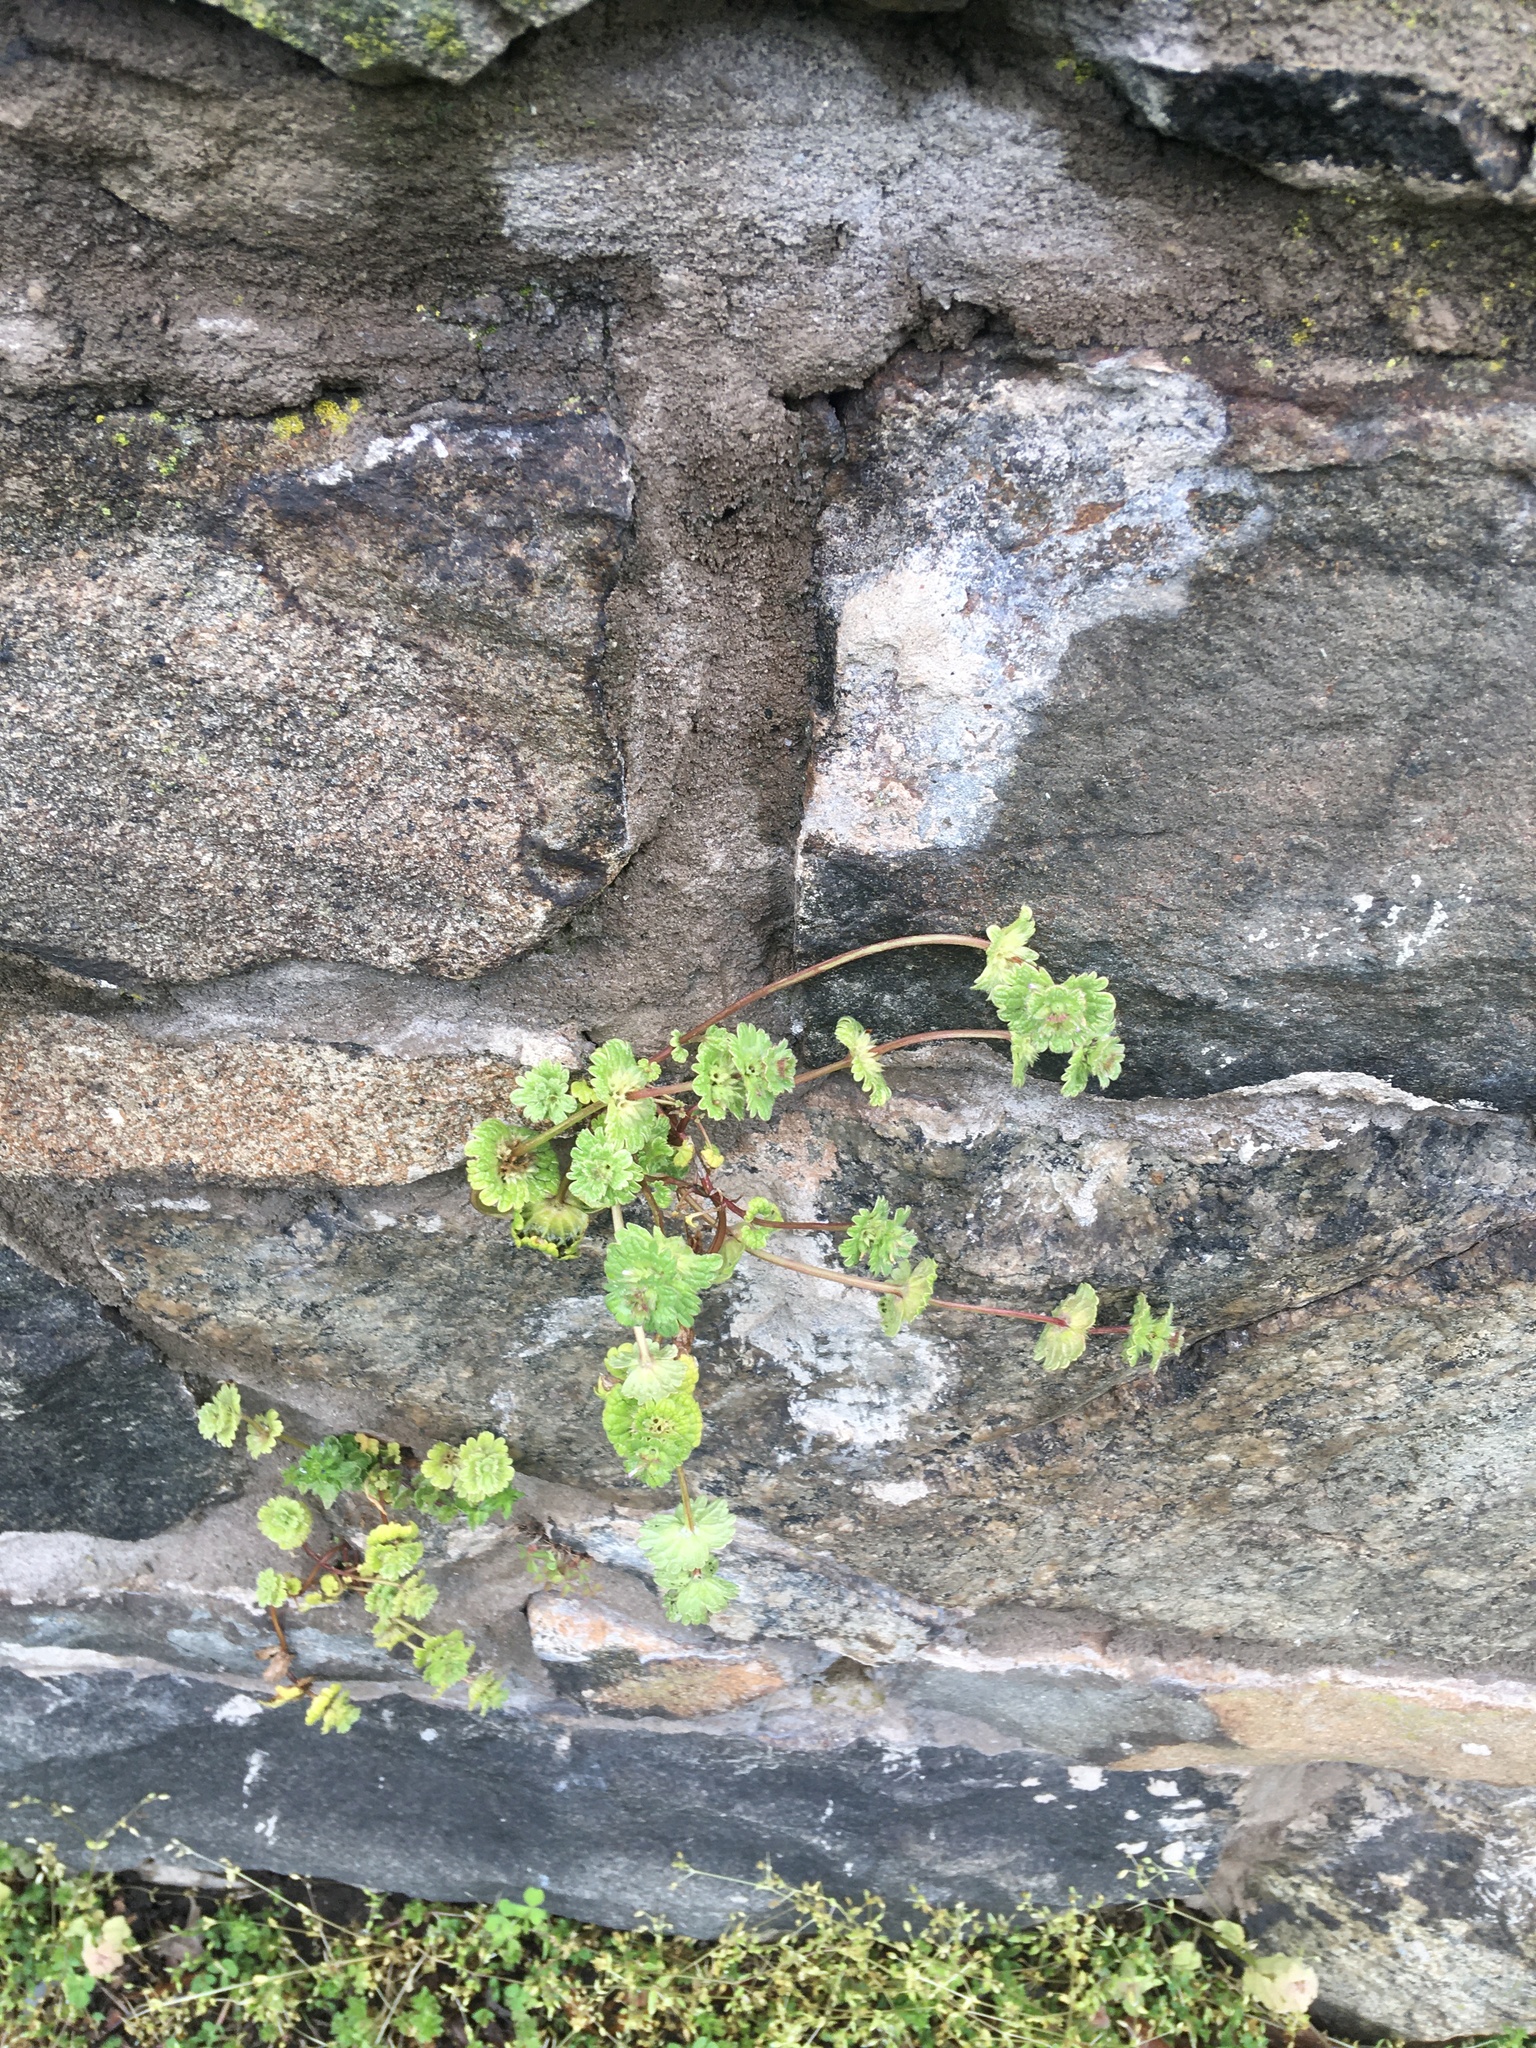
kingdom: Plantae
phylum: Tracheophyta
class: Magnoliopsida
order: Lamiales
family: Lamiaceae
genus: Lamium
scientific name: Lamium amplexicaule
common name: Henbit dead-nettle
